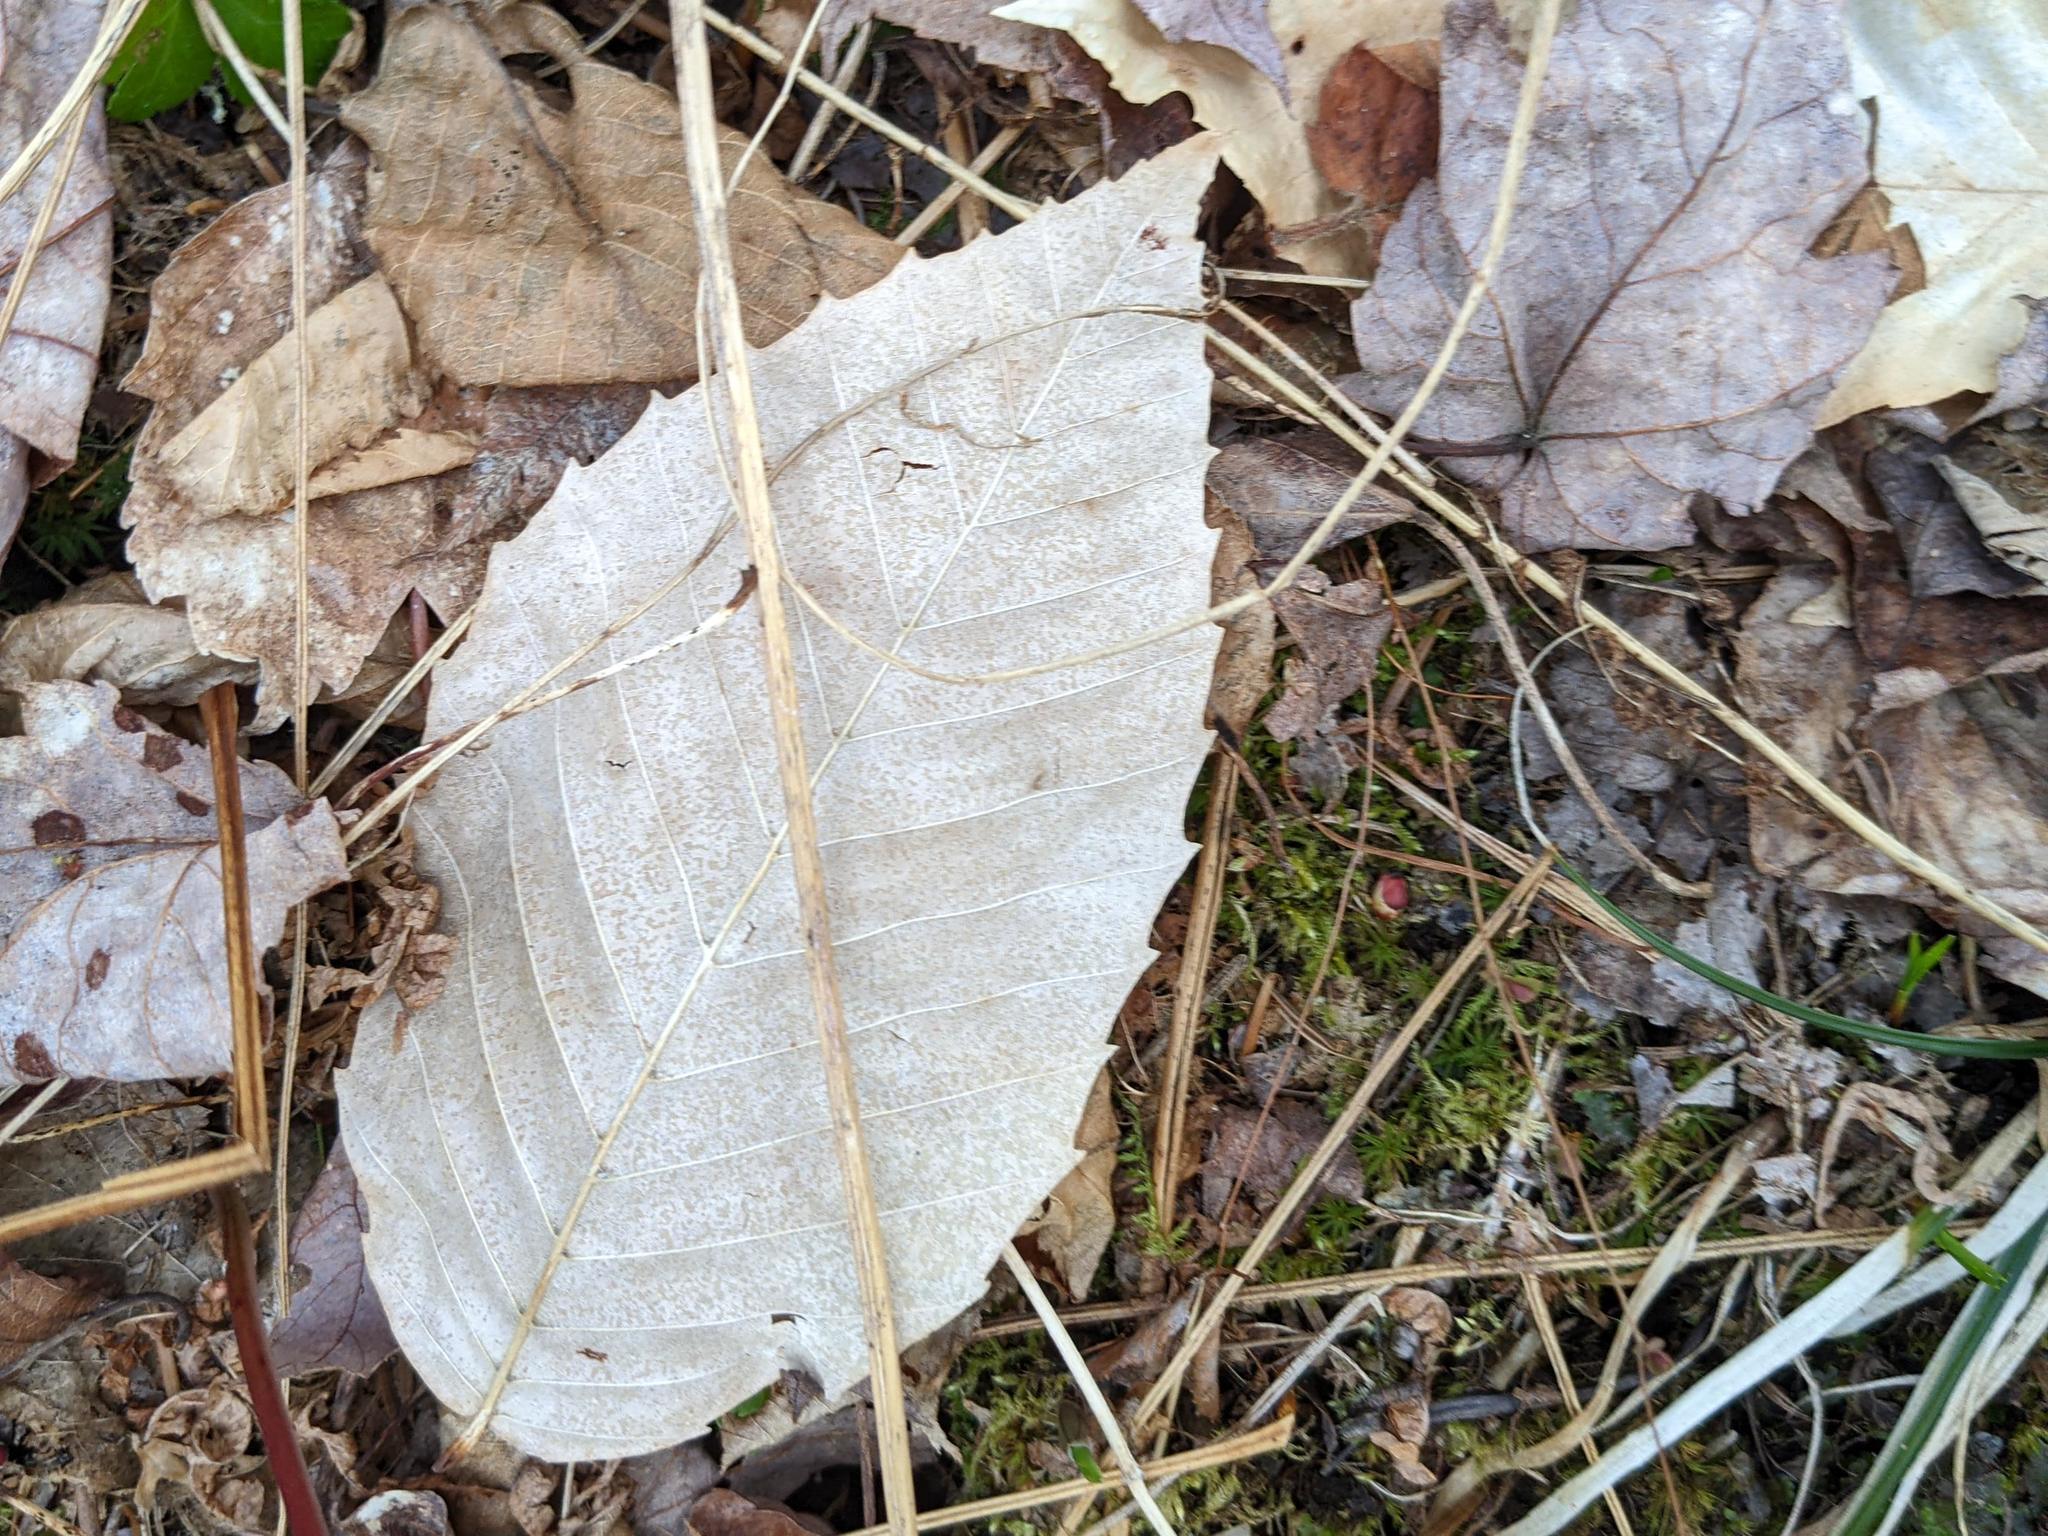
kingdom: Plantae
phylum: Tracheophyta
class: Magnoliopsida
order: Fagales
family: Fagaceae
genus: Fagus
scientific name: Fagus grandifolia
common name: American beech
